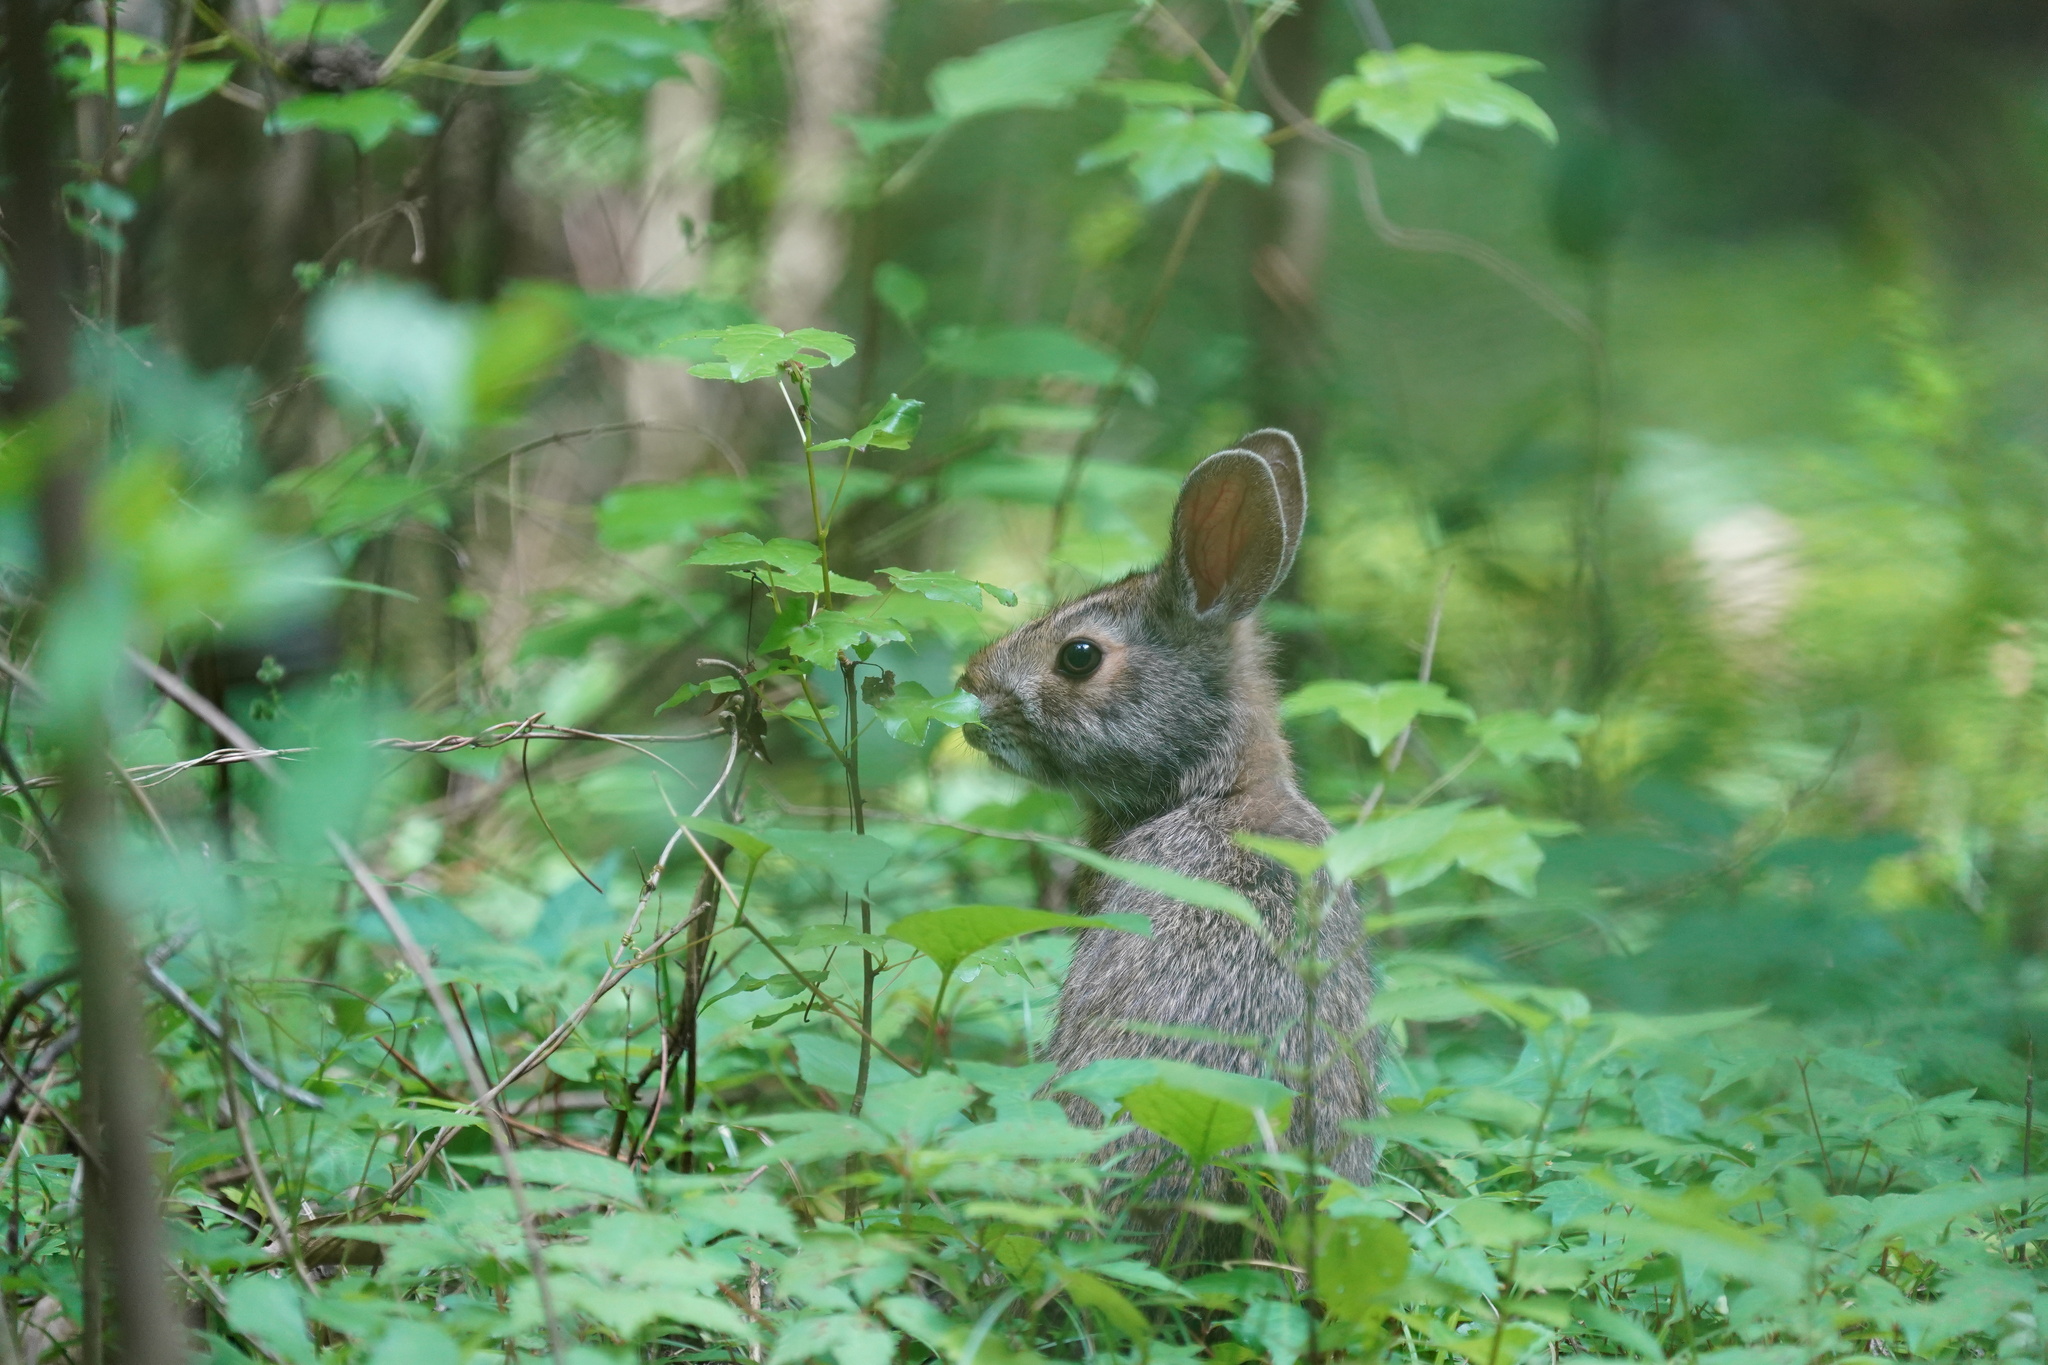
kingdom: Animalia
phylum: Chordata
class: Mammalia
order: Lagomorpha
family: Leporidae
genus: Sylvilagus
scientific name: Sylvilagus aquaticus
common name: Swamp rabbit
